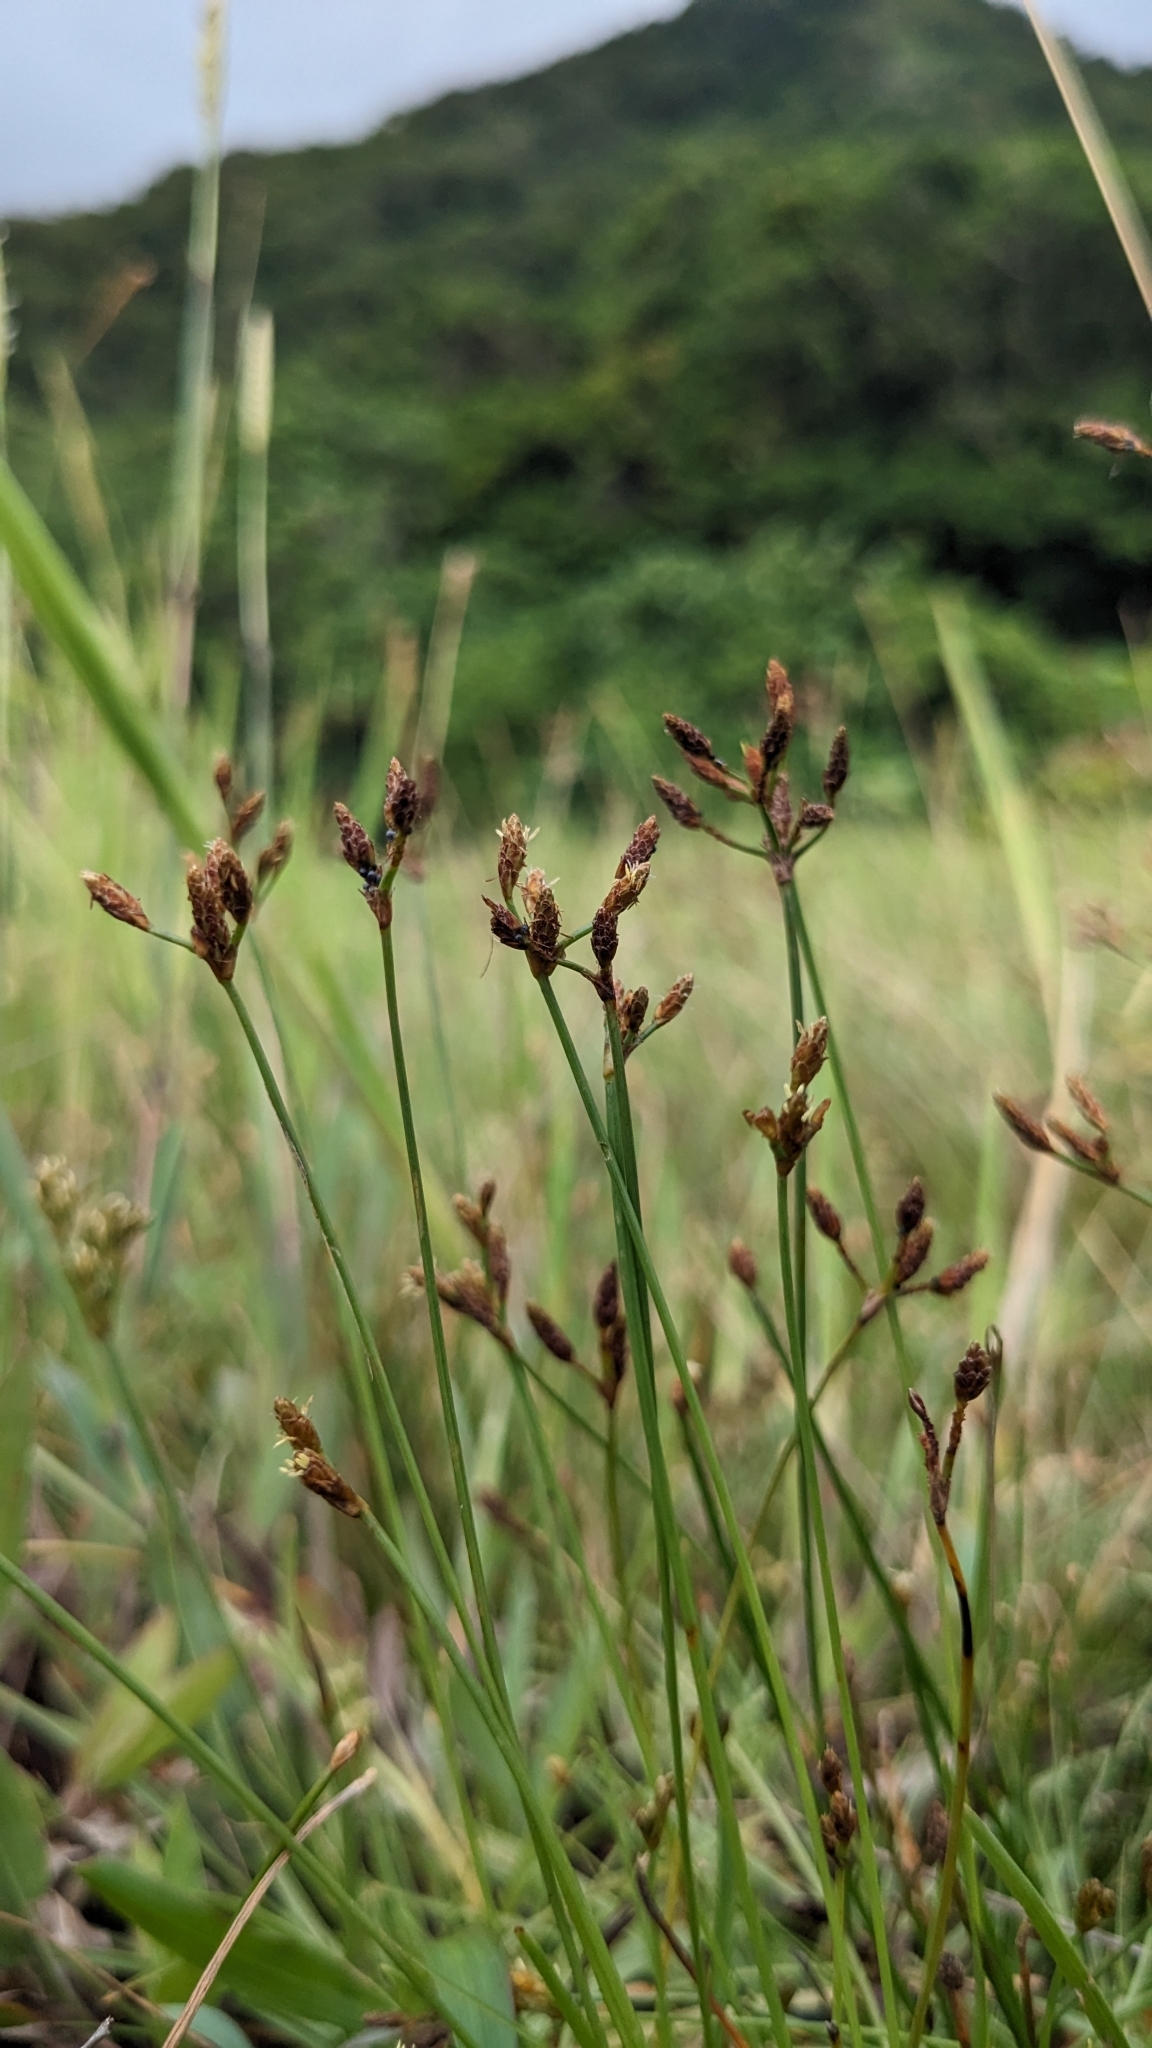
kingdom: Plantae
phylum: Tracheophyta
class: Liliopsida
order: Poales
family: Cyperaceae
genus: Fimbristylis
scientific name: Fimbristylis macassarensis
